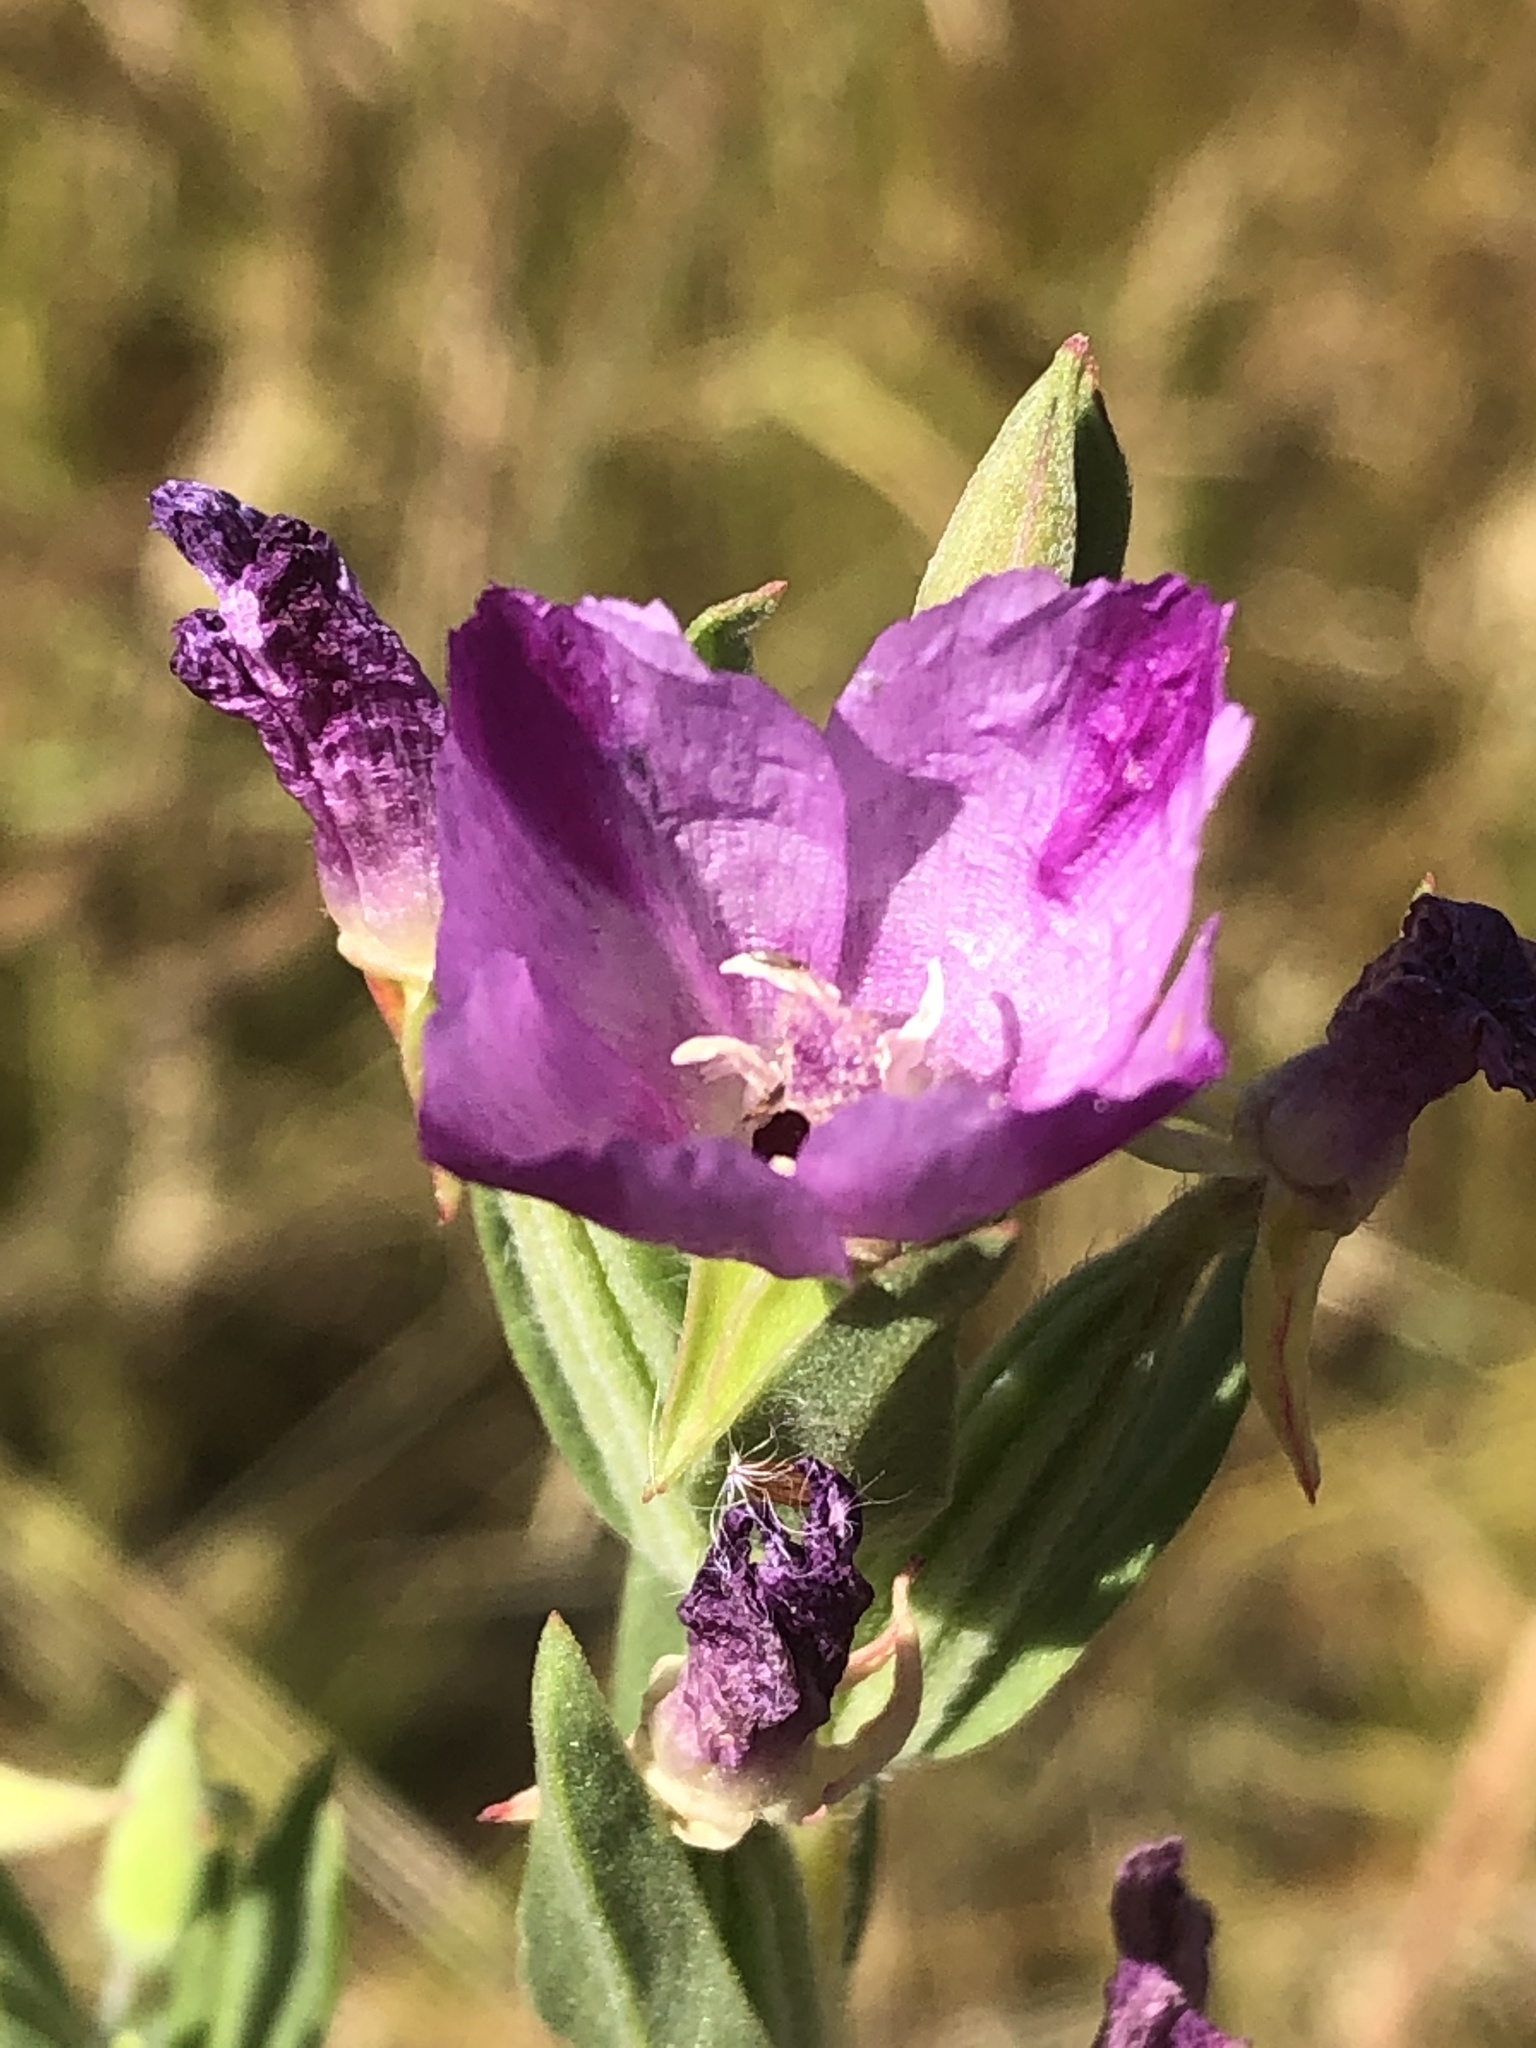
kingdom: Plantae
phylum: Tracheophyta
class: Magnoliopsida
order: Myrtales
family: Onagraceae
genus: Clarkia
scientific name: Clarkia purpurea
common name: Purple clarkia
